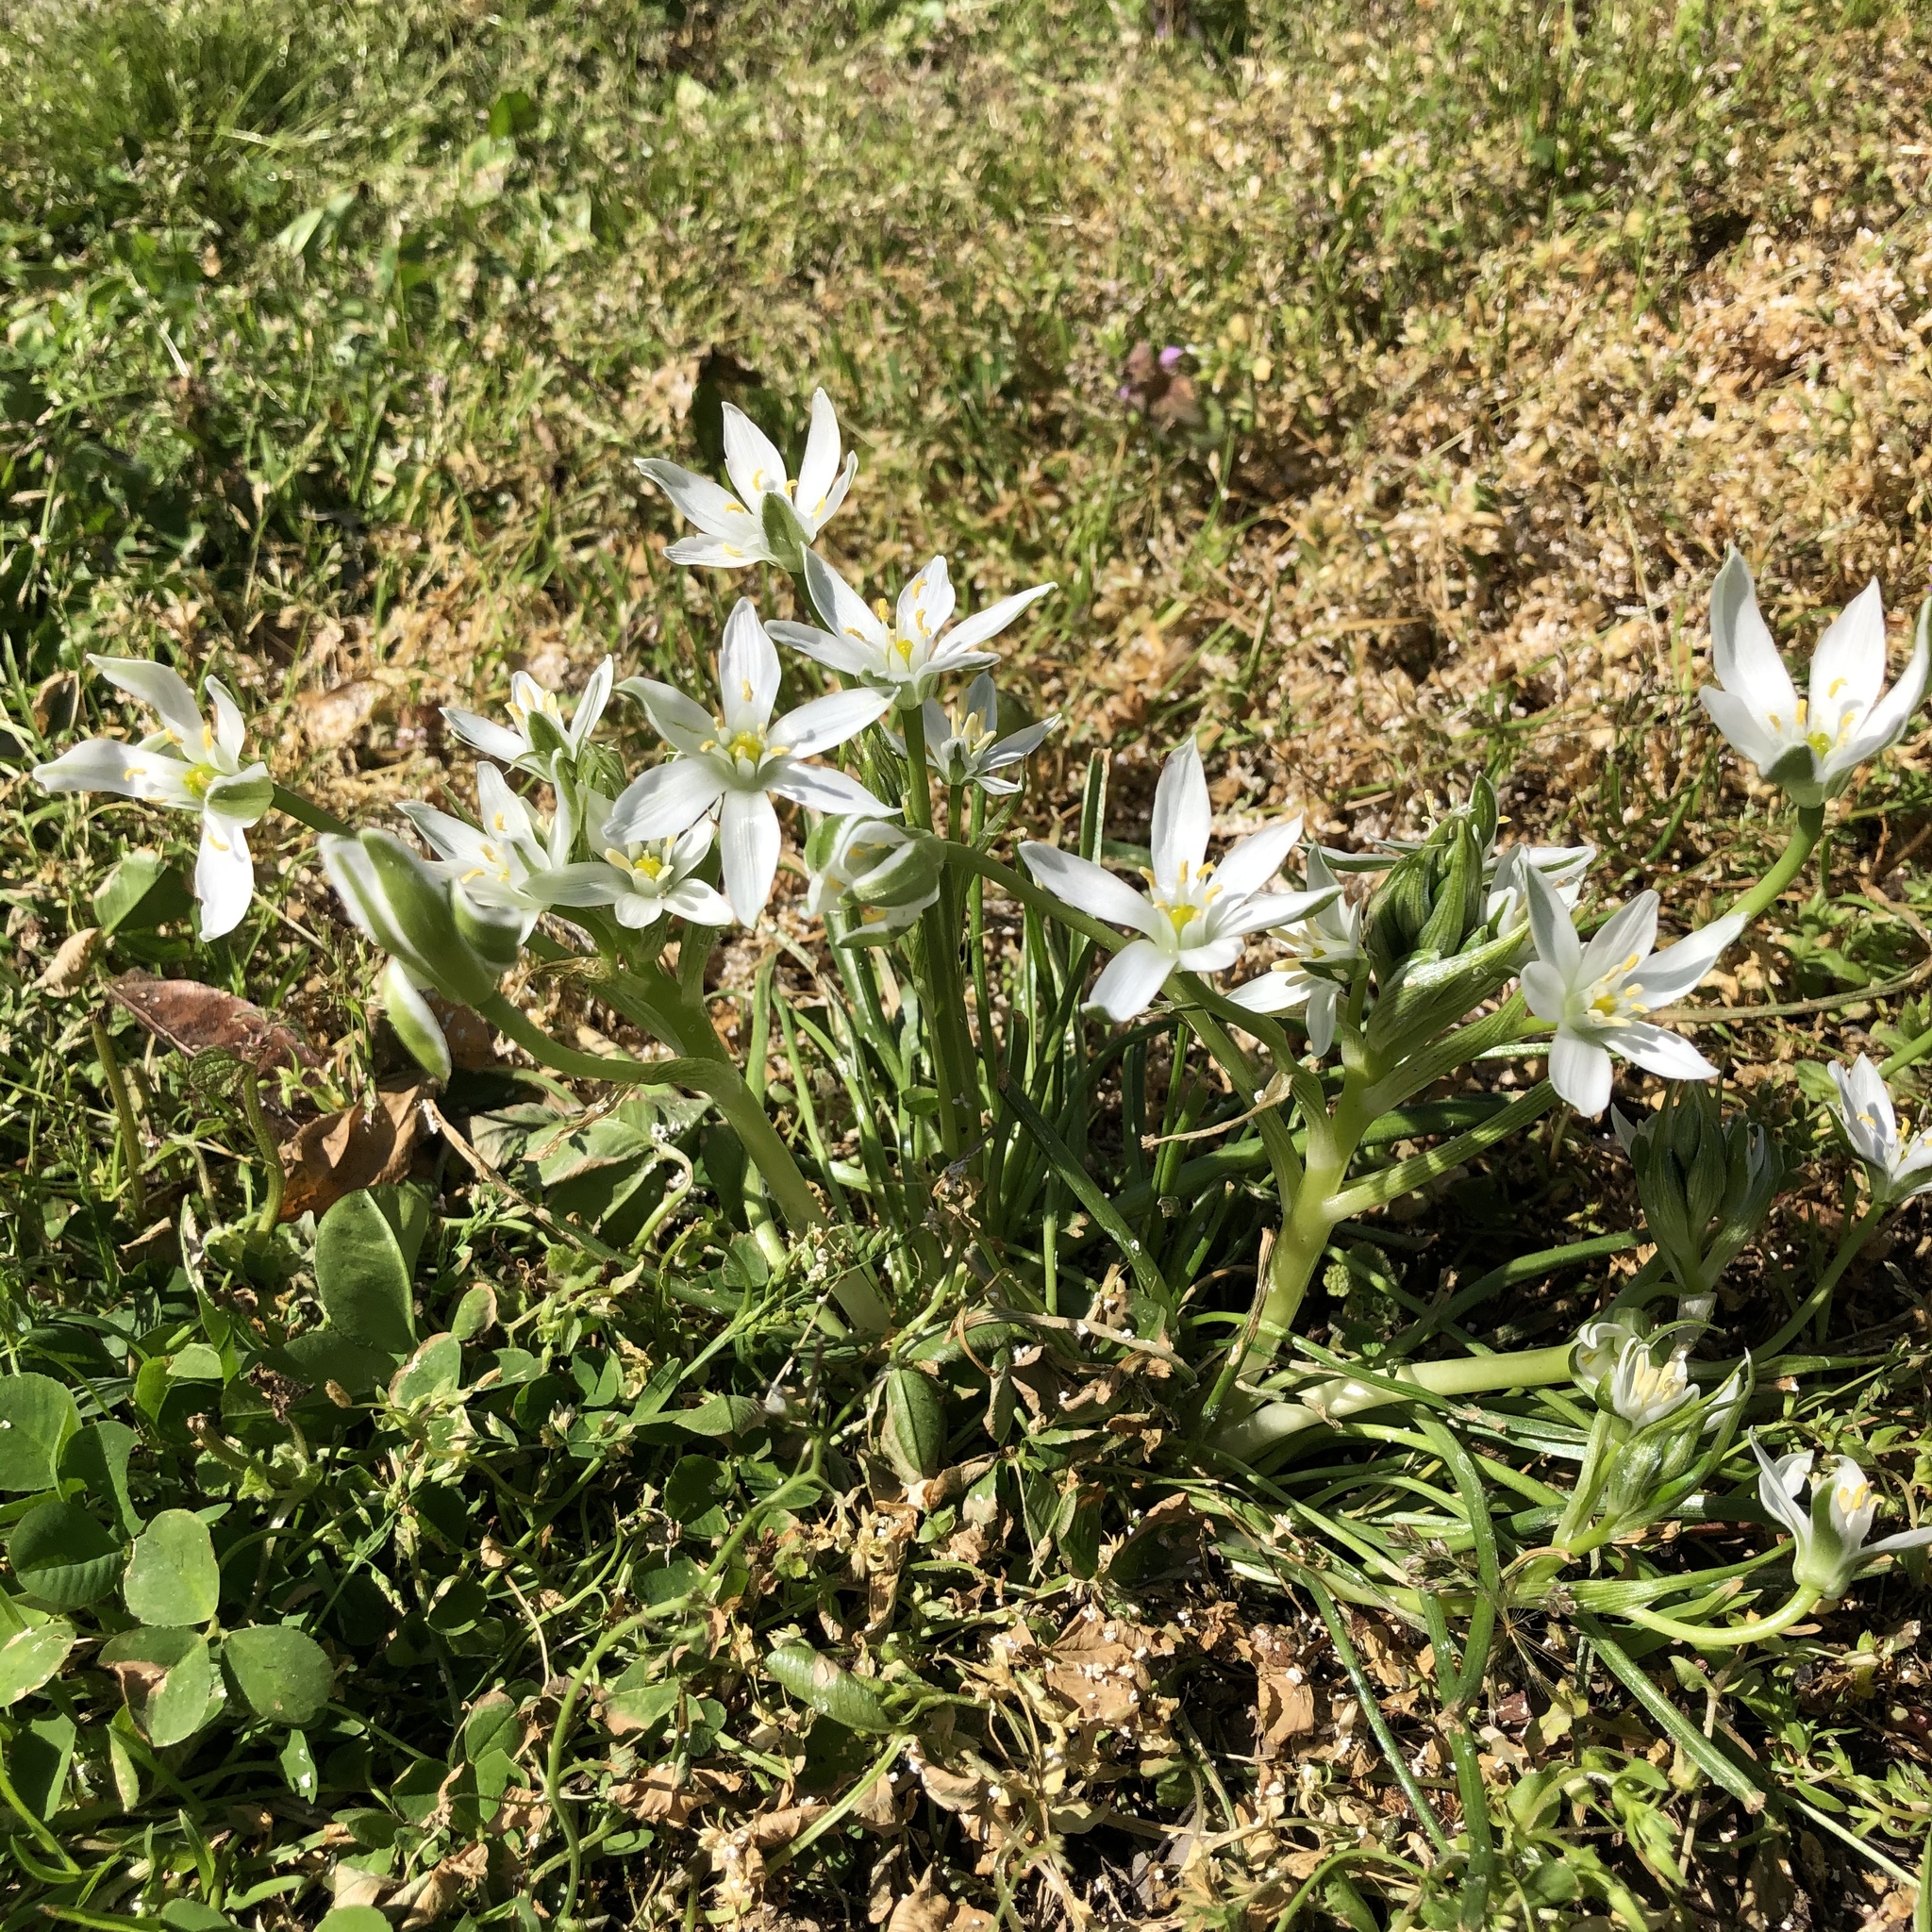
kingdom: Plantae
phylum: Tracheophyta
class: Liliopsida
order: Asparagales
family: Asparagaceae
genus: Ornithogalum
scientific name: Ornithogalum umbellatum
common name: Garden star-of-bethlehem
